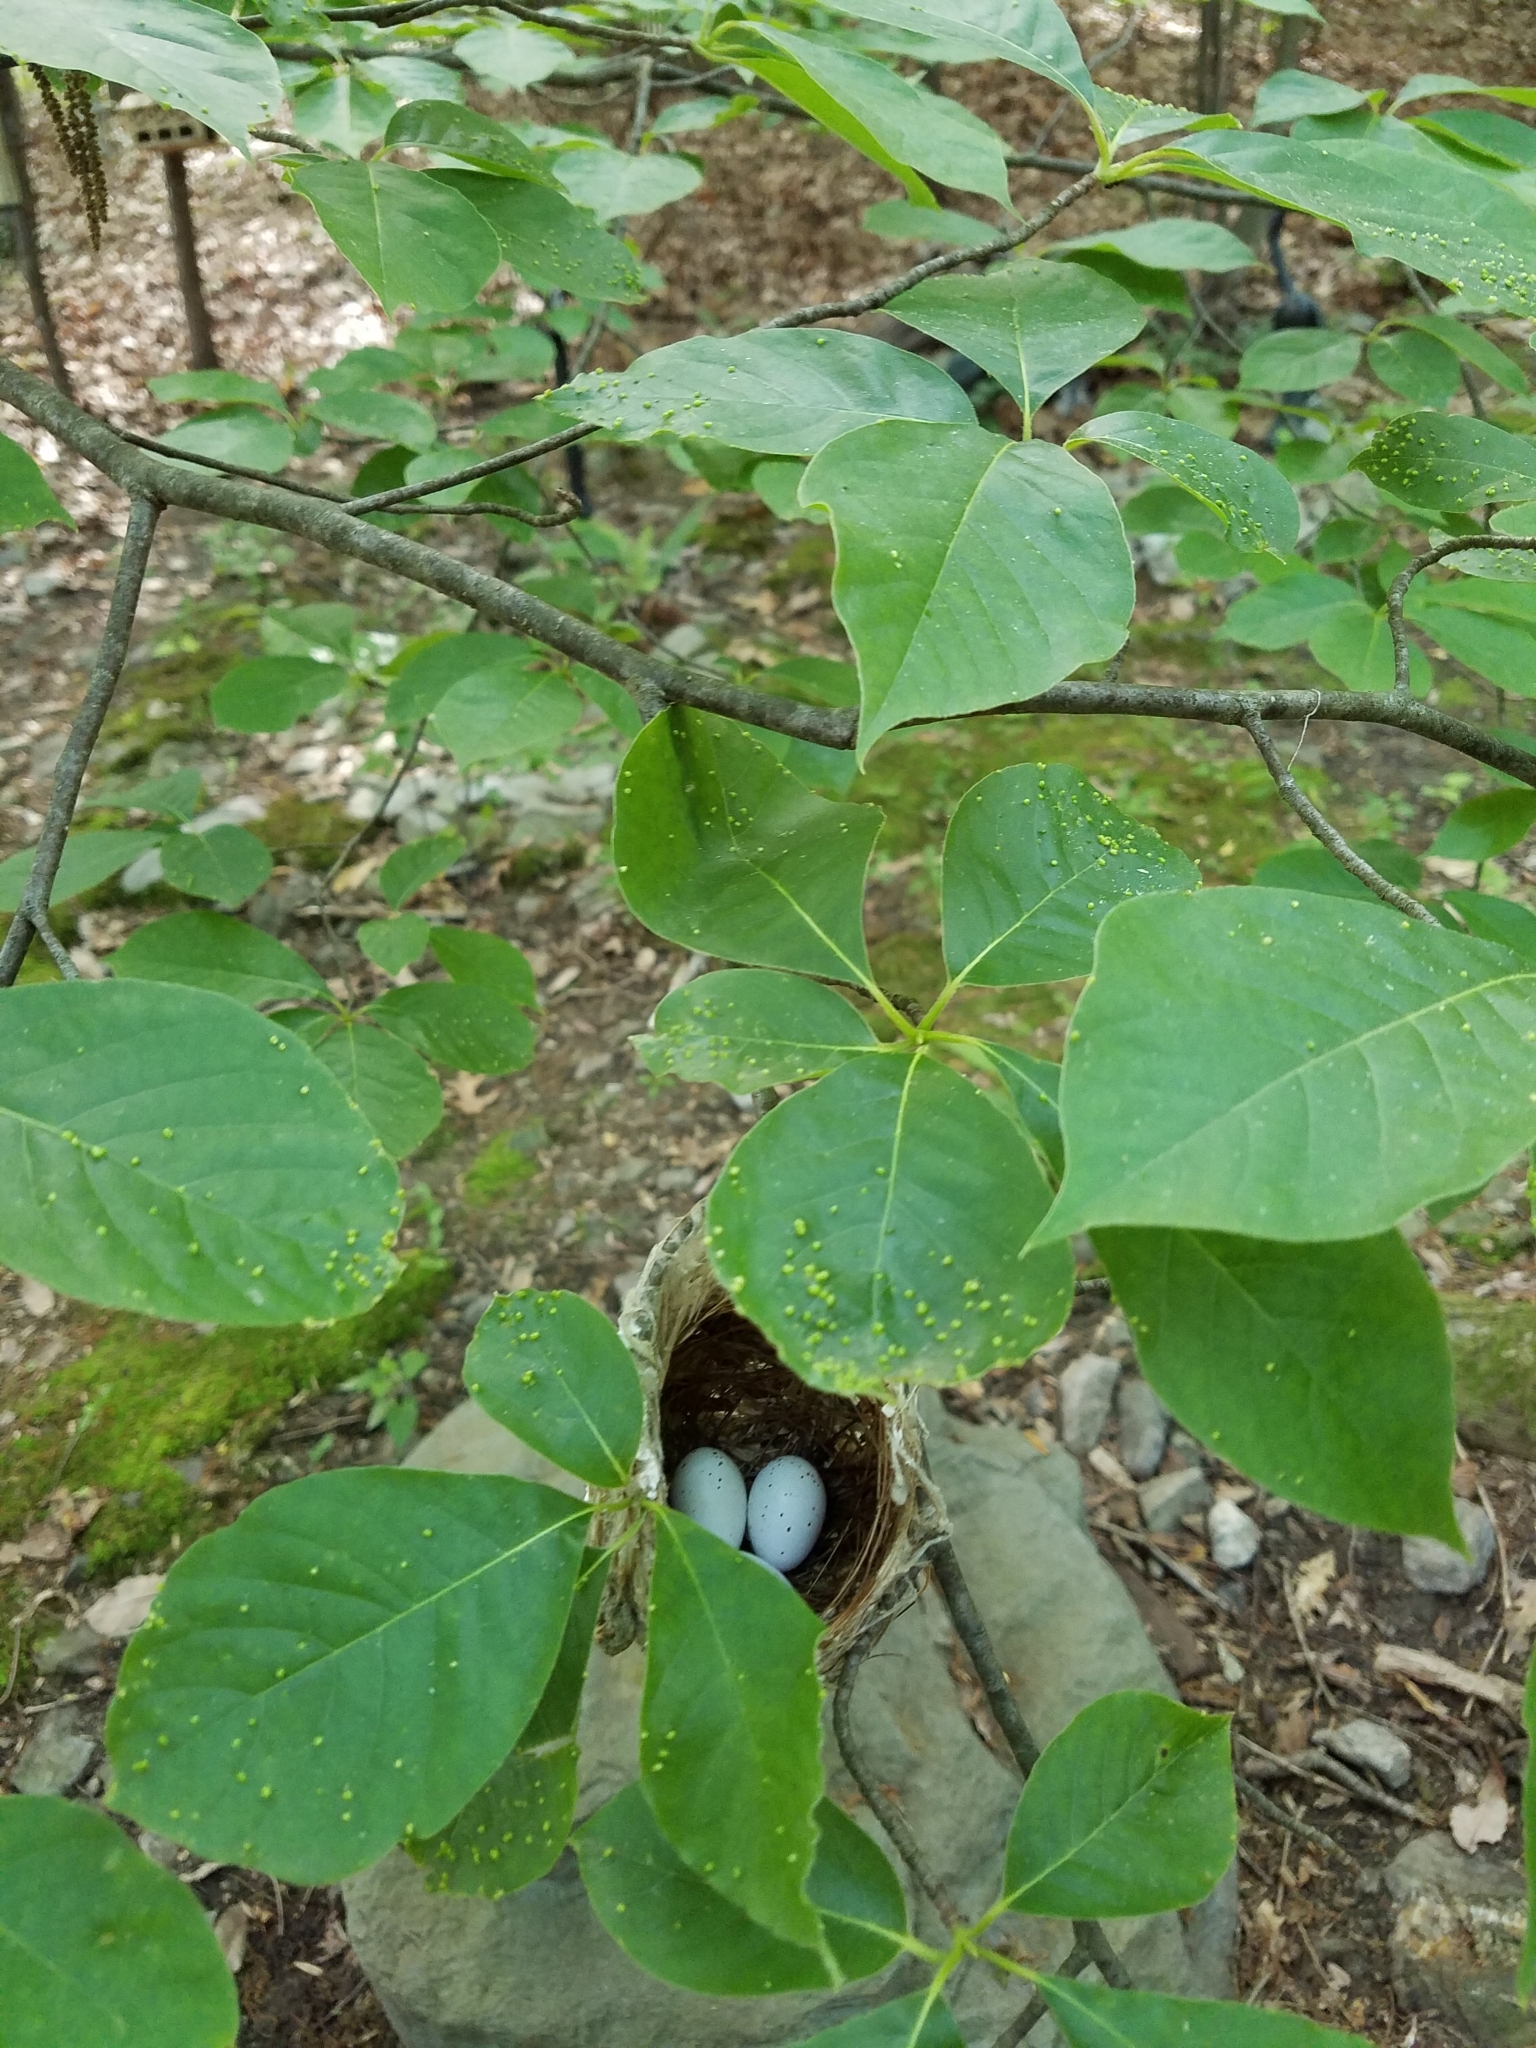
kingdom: Animalia
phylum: Chordata
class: Aves
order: Passeriformes
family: Vireonidae
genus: Vireo
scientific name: Vireo olivaceus
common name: Red-eyed vireo
